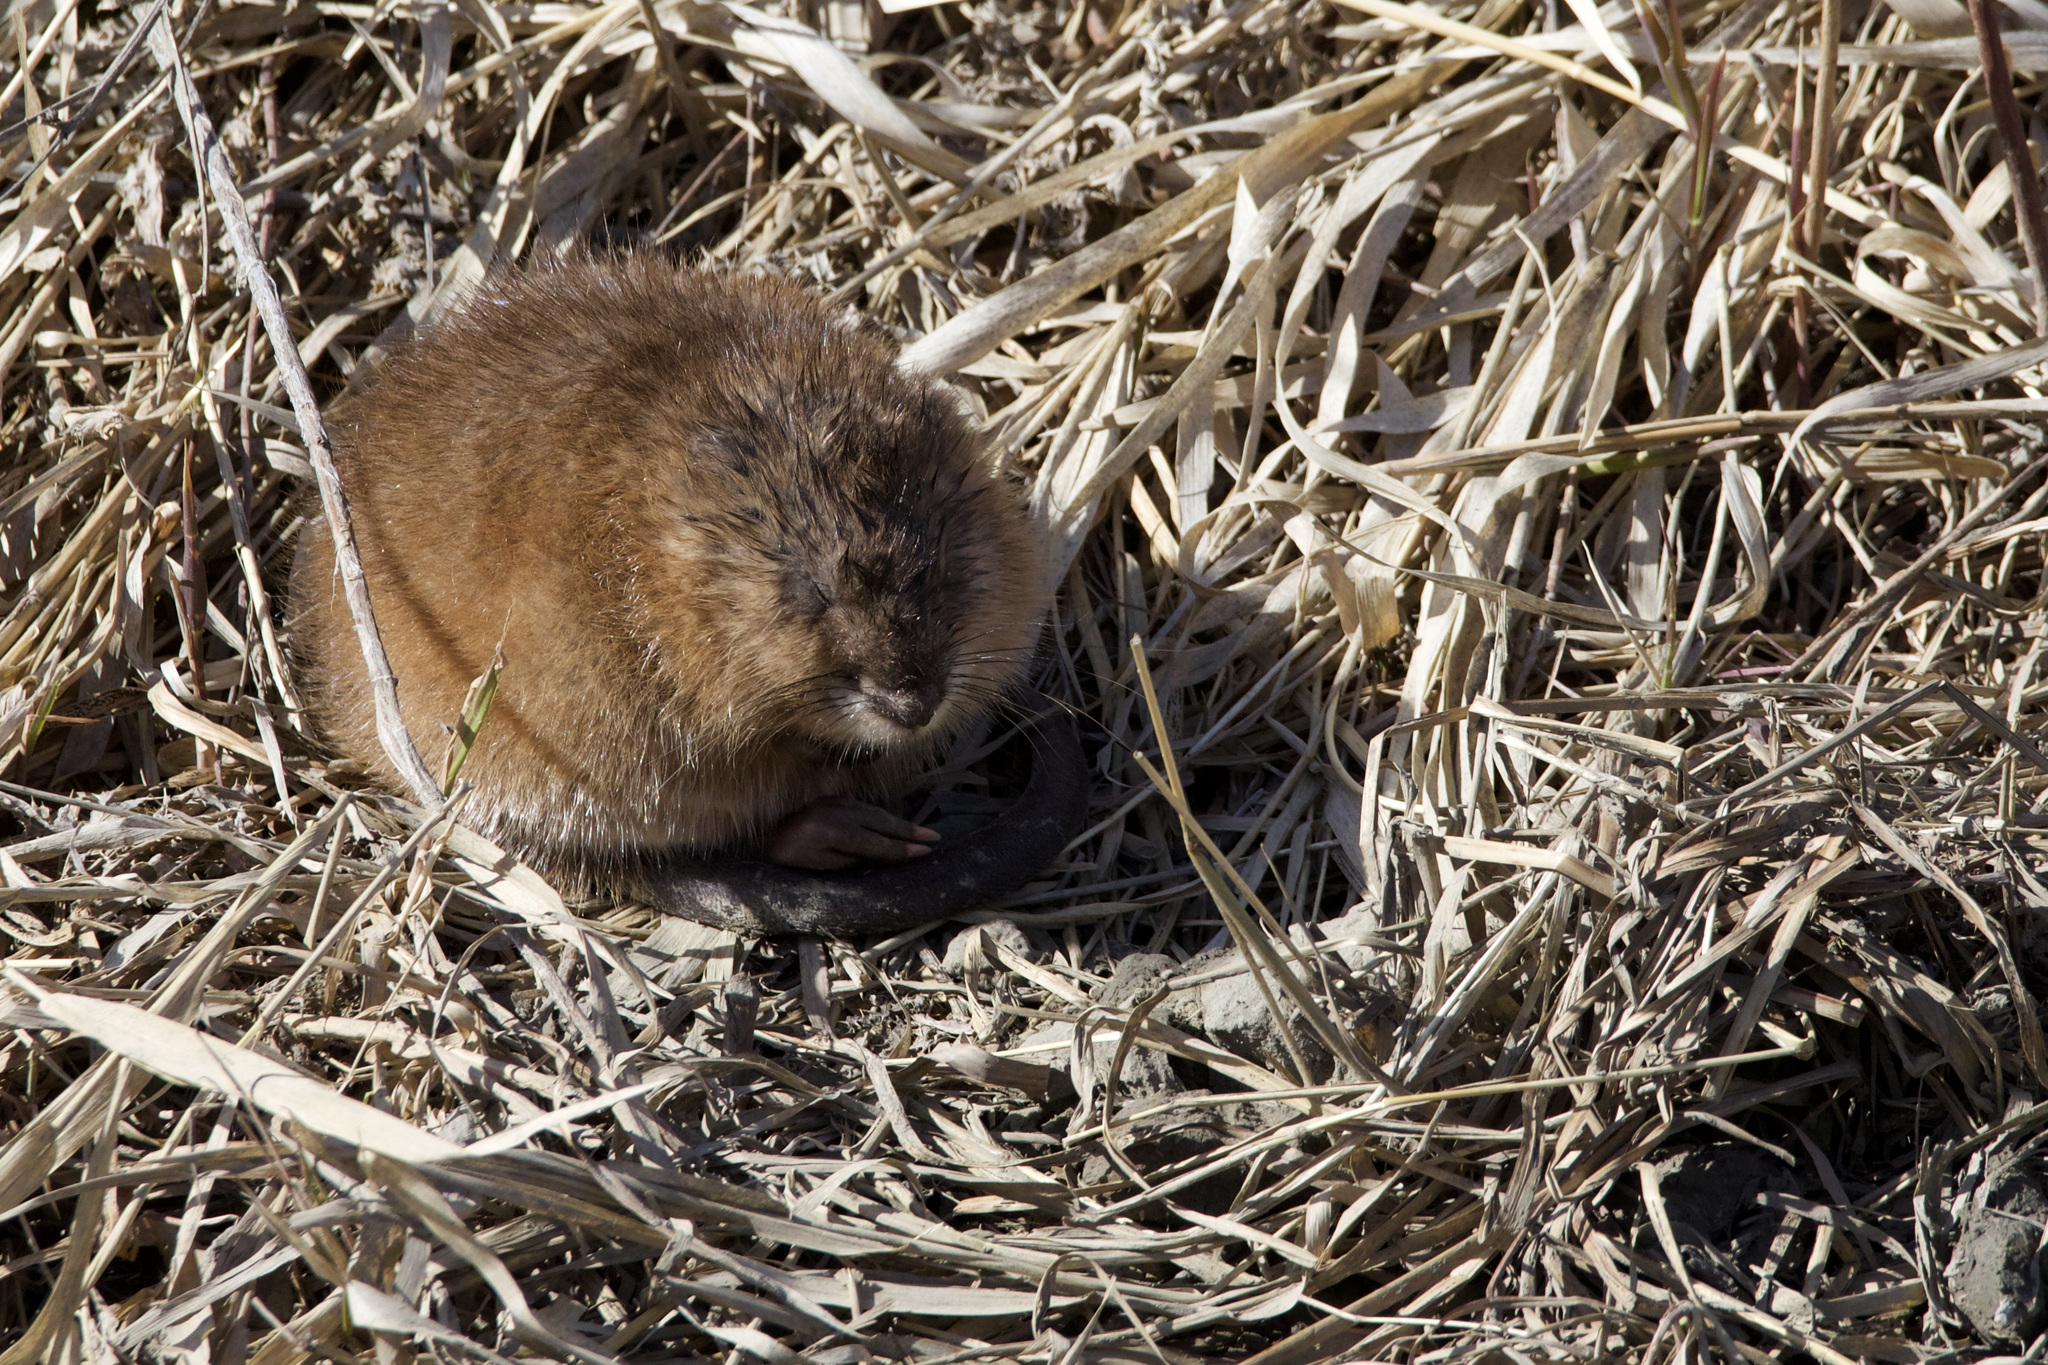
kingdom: Animalia
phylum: Chordata
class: Mammalia
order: Rodentia
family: Cricetidae
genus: Ondatra
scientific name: Ondatra zibethicus
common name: Muskrat
